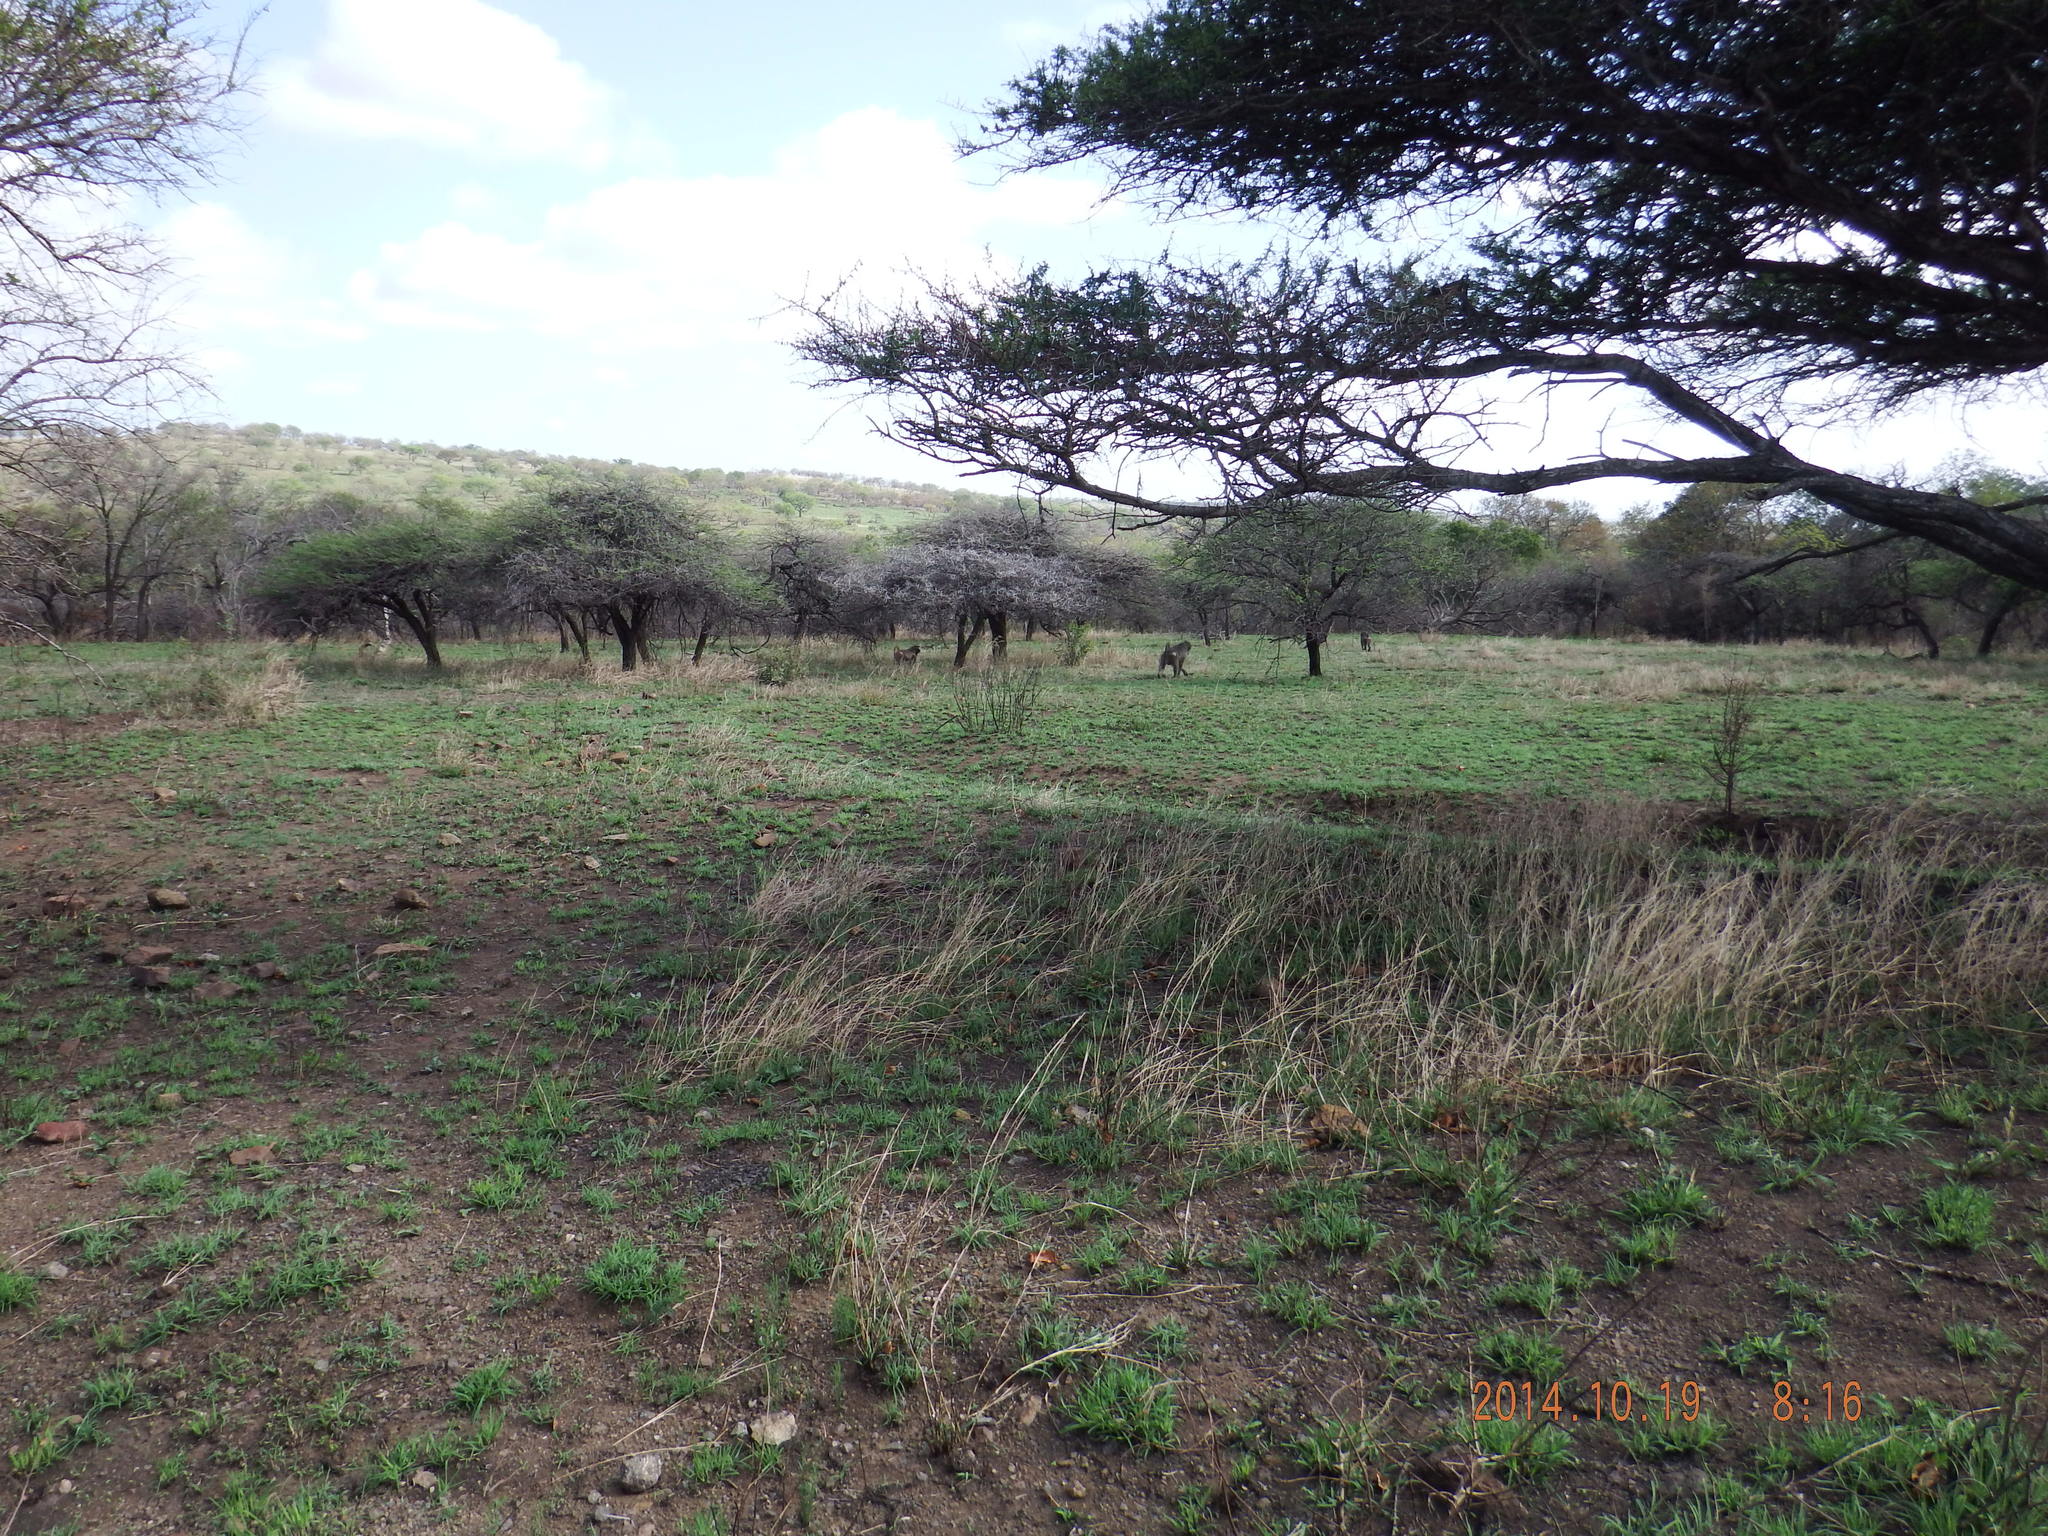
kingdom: Animalia
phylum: Chordata
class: Mammalia
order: Primates
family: Cercopithecidae
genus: Papio
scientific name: Papio ursinus
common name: Chacma baboon
